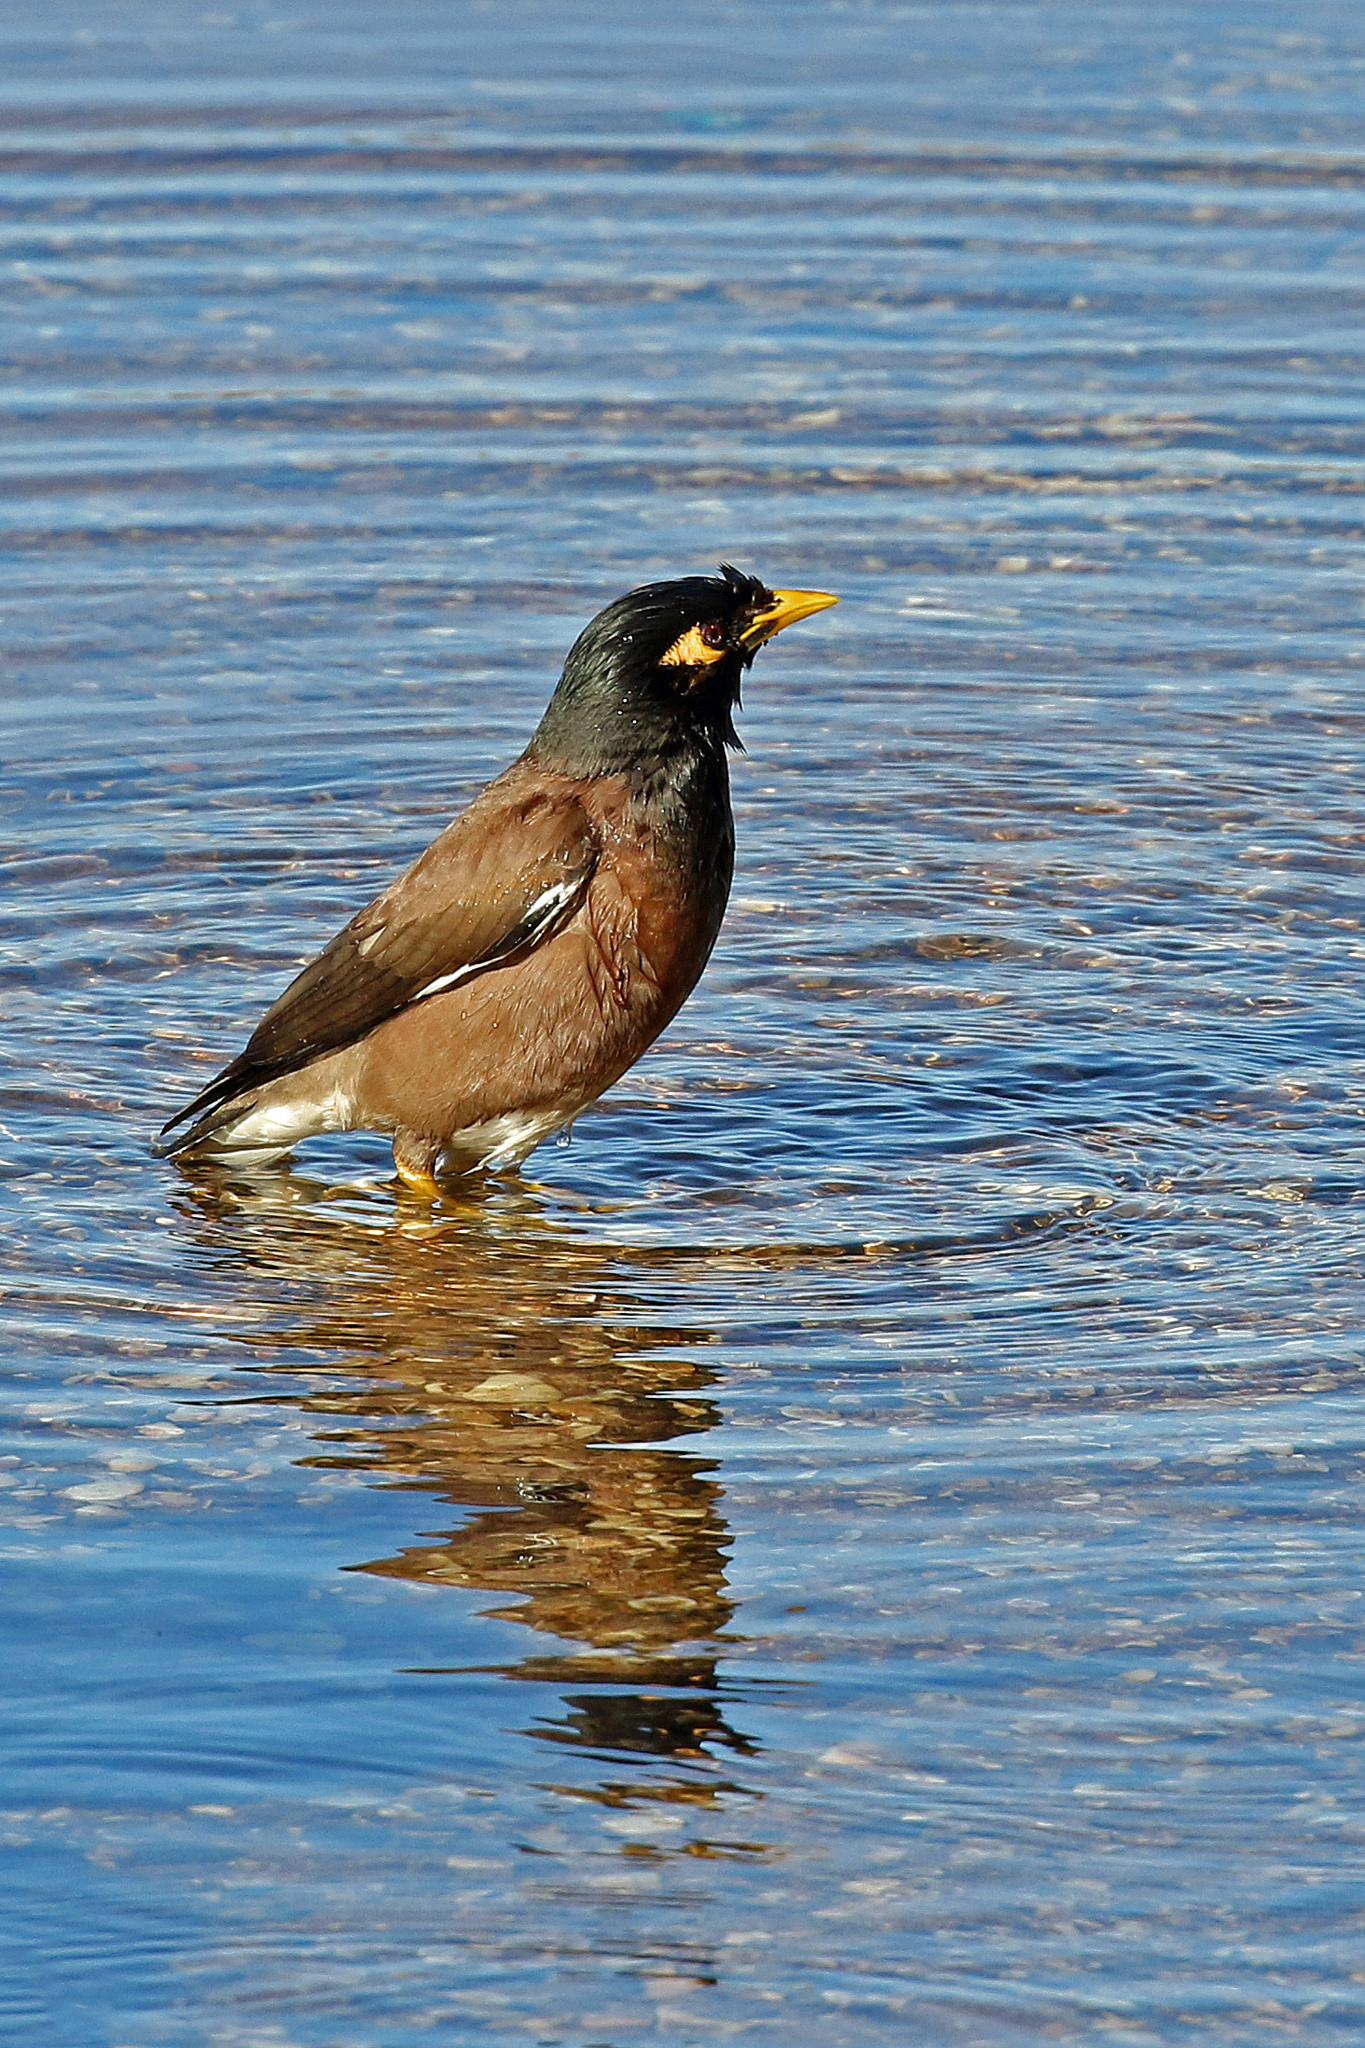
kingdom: Animalia
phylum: Chordata
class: Aves
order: Passeriformes
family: Sturnidae
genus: Acridotheres
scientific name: Acridotheres tristis
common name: Common myna
